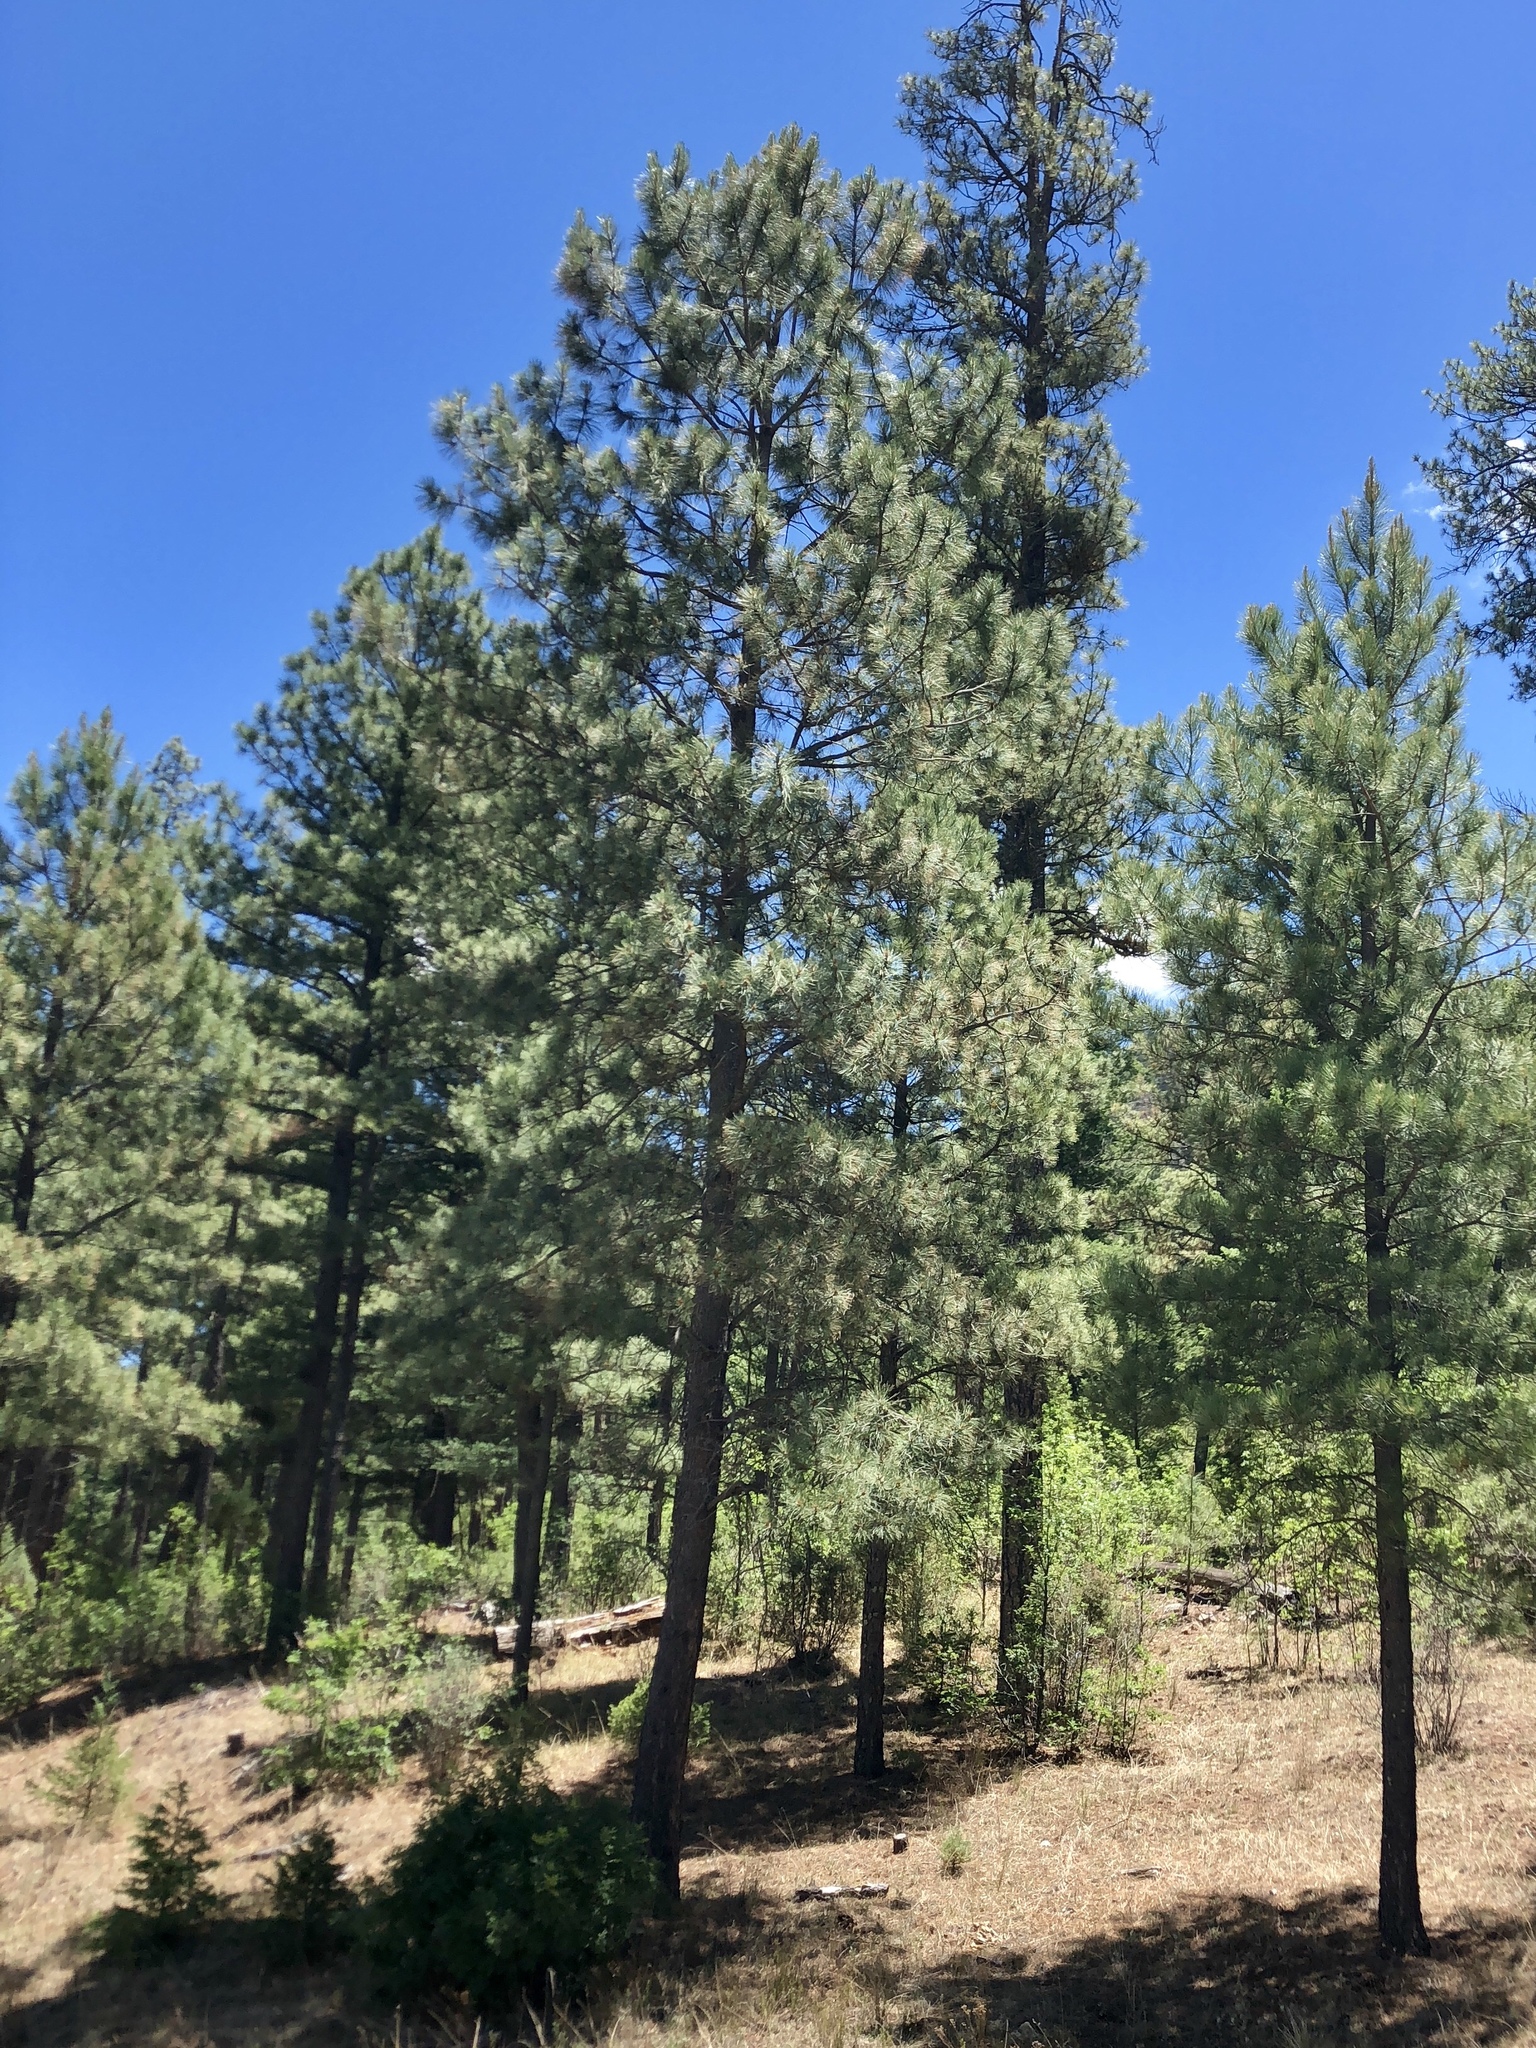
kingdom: Plantae
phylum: Tracheophyta
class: Pinopsida
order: Pinales
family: Pinaceae
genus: Pinus
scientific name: Pinus ponderosa
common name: Western yellow-pine
